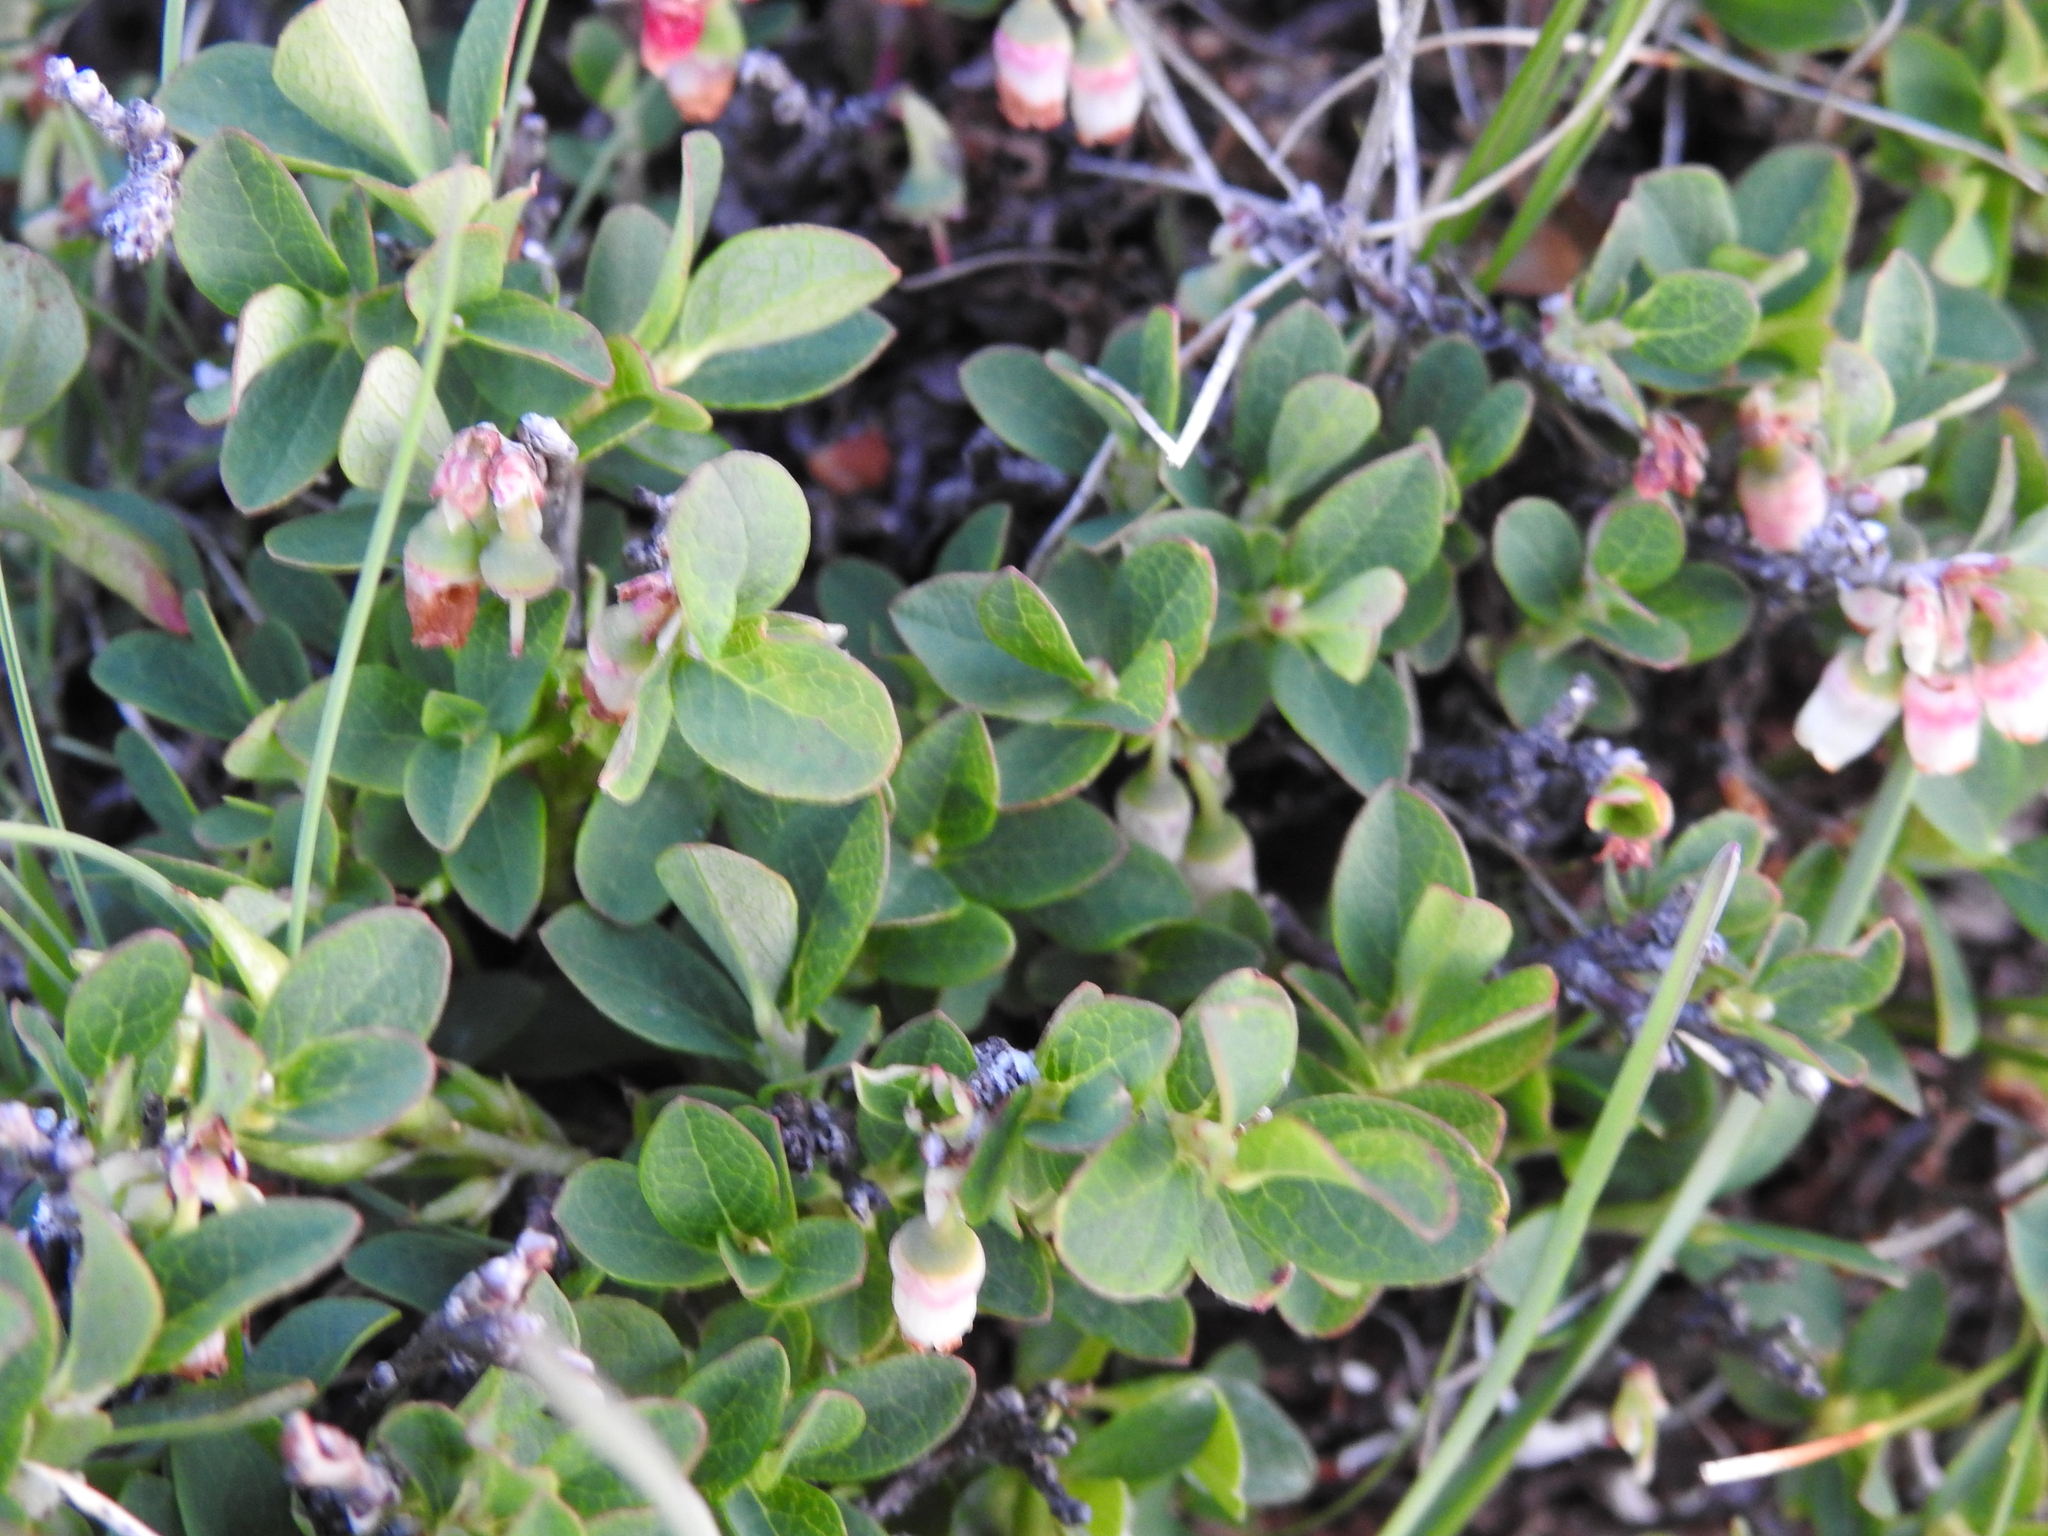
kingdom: Plantae
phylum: Tracheophyta
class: Magnoliopsida
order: Ericales
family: Ericaceae
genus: Vaccinium
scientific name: Vaccinium uliginosum
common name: Bog bilberry
